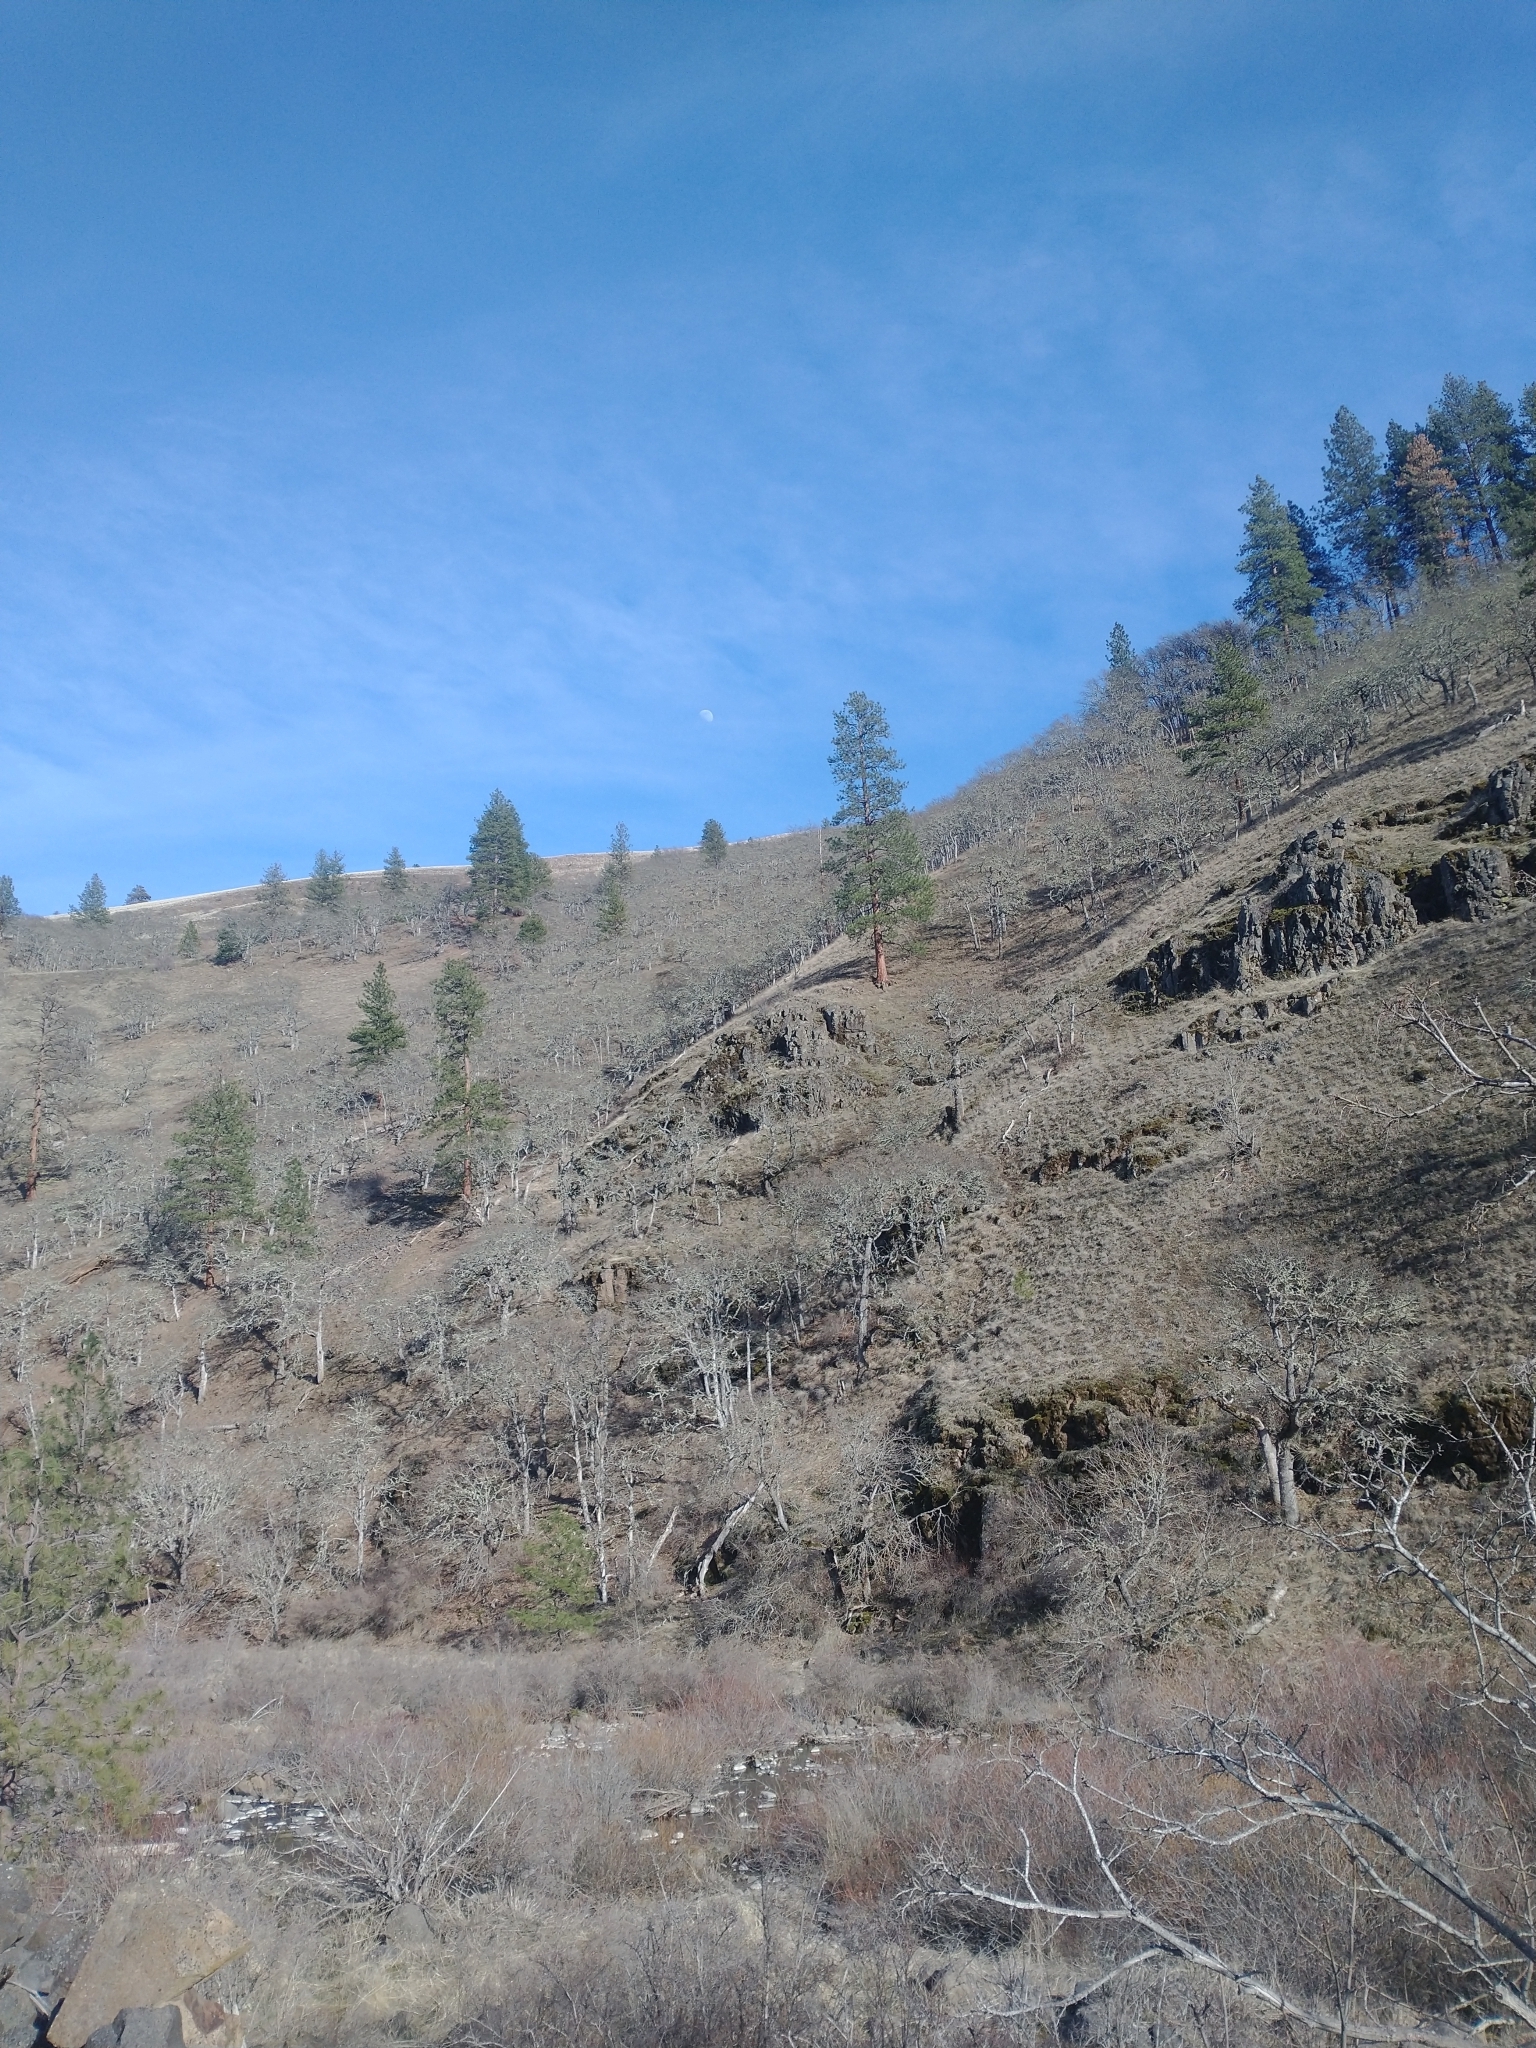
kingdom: Plantae
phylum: Tracheophyta
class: Pinopsida
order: Pinales
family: Pinaceae
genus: Pinus
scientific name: Pinus ponderosa
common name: Western yellow-pine
